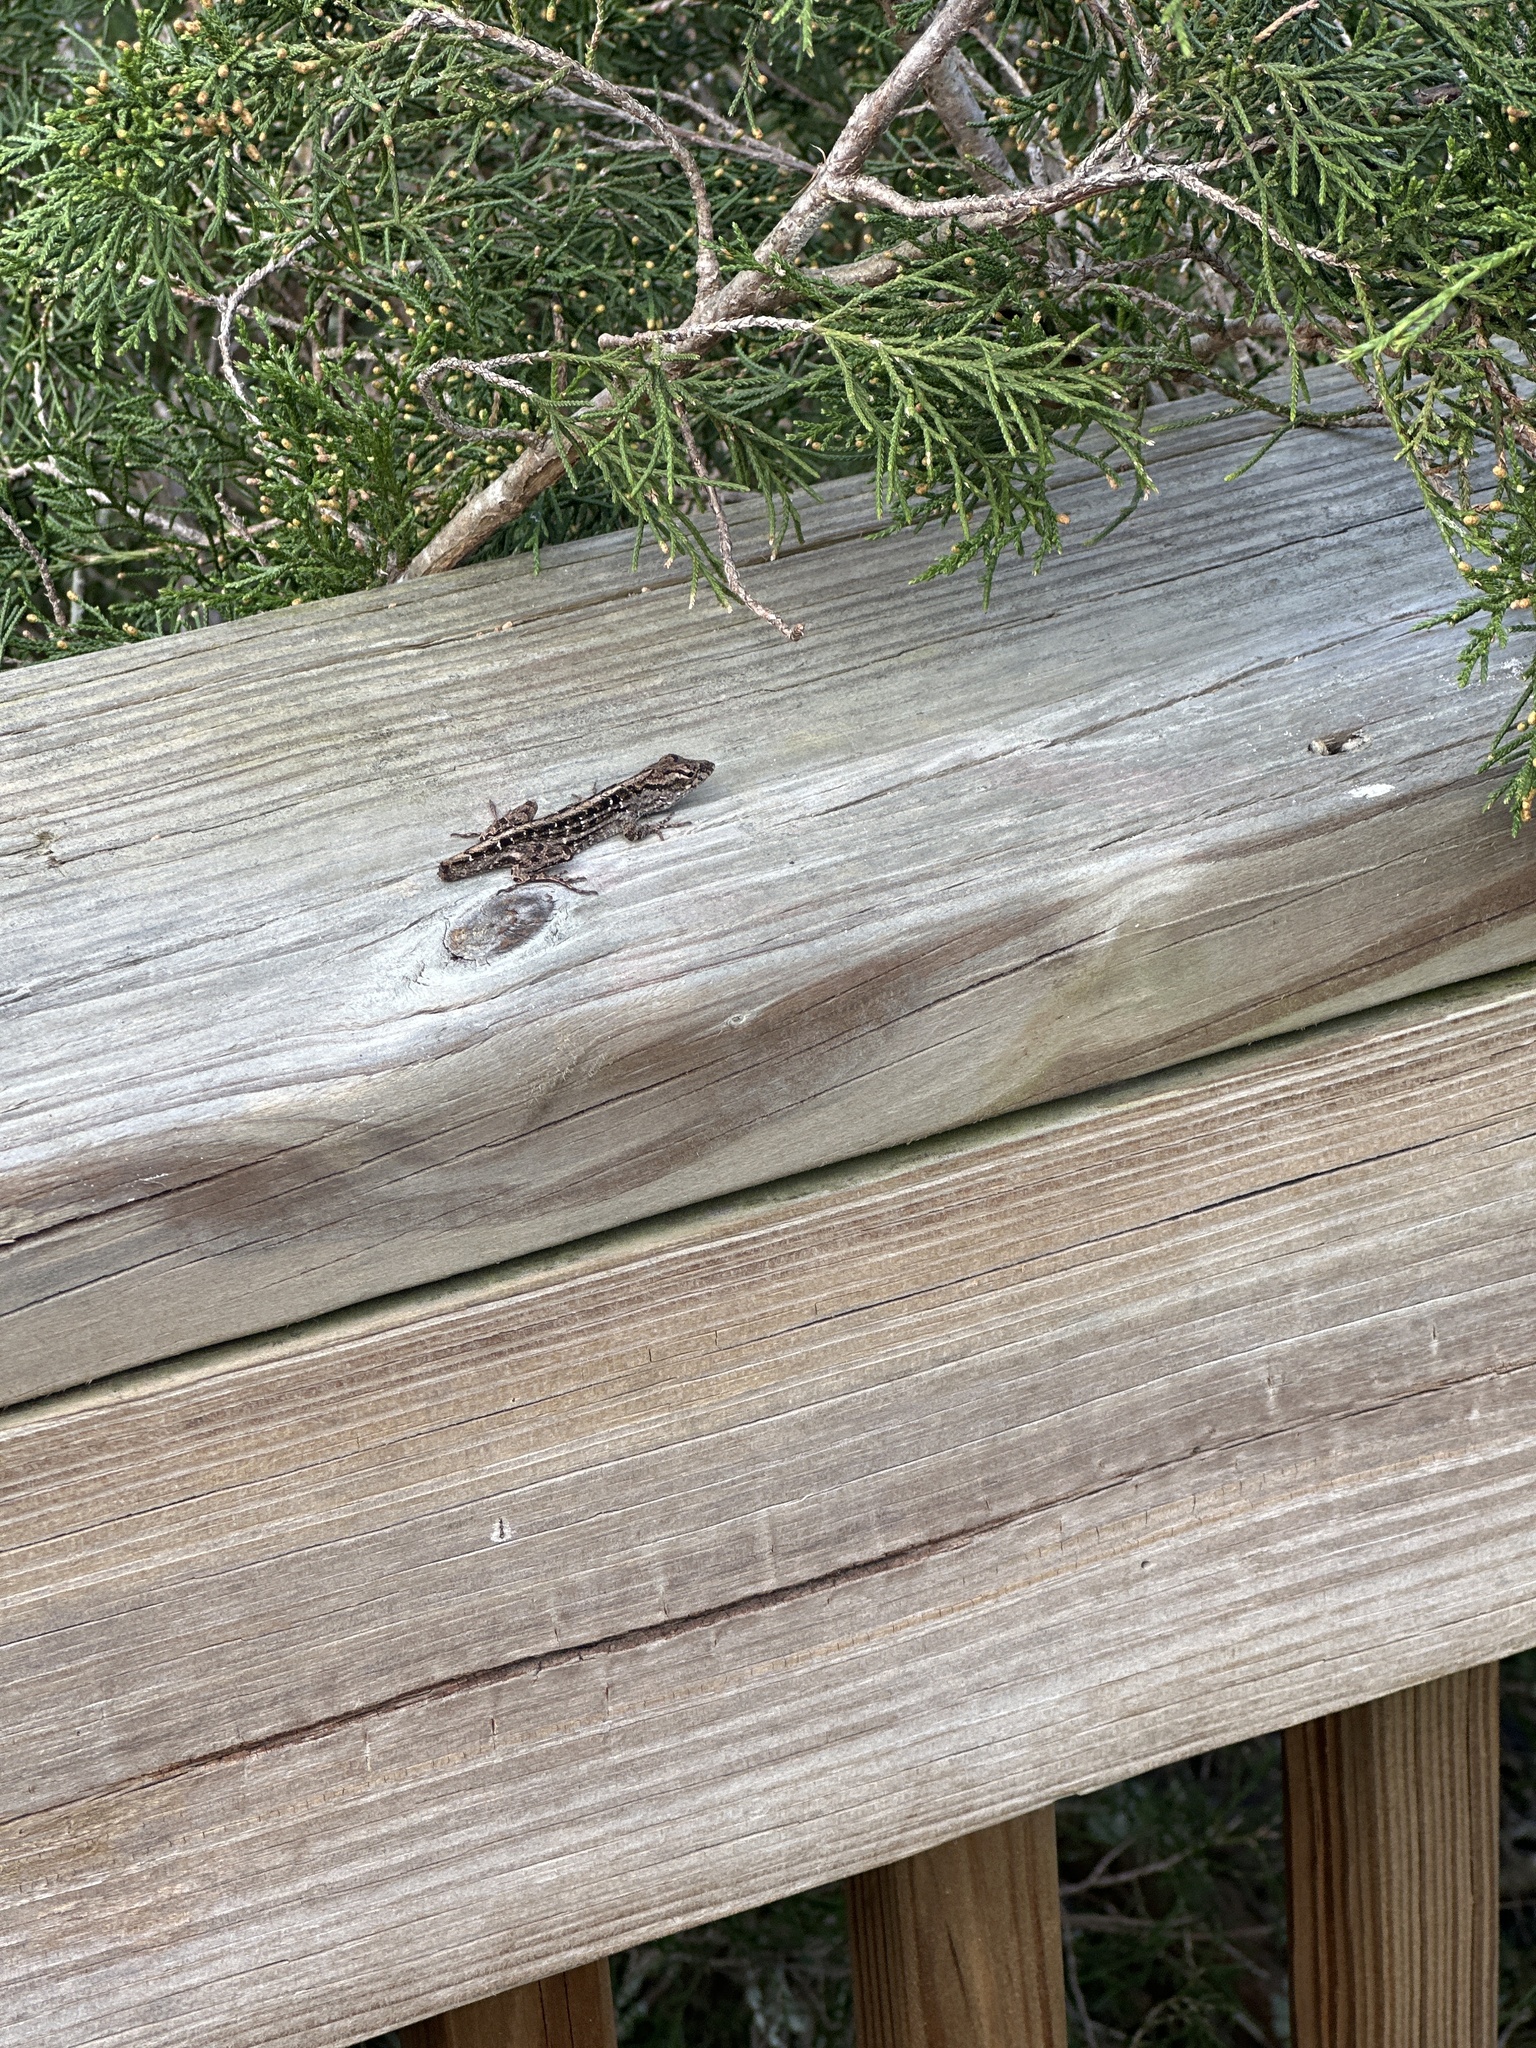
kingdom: Animalia
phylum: Chordata
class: Squamata
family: Dactyloidae
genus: Anolis
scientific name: Anolis sagrei
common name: Brown anole
